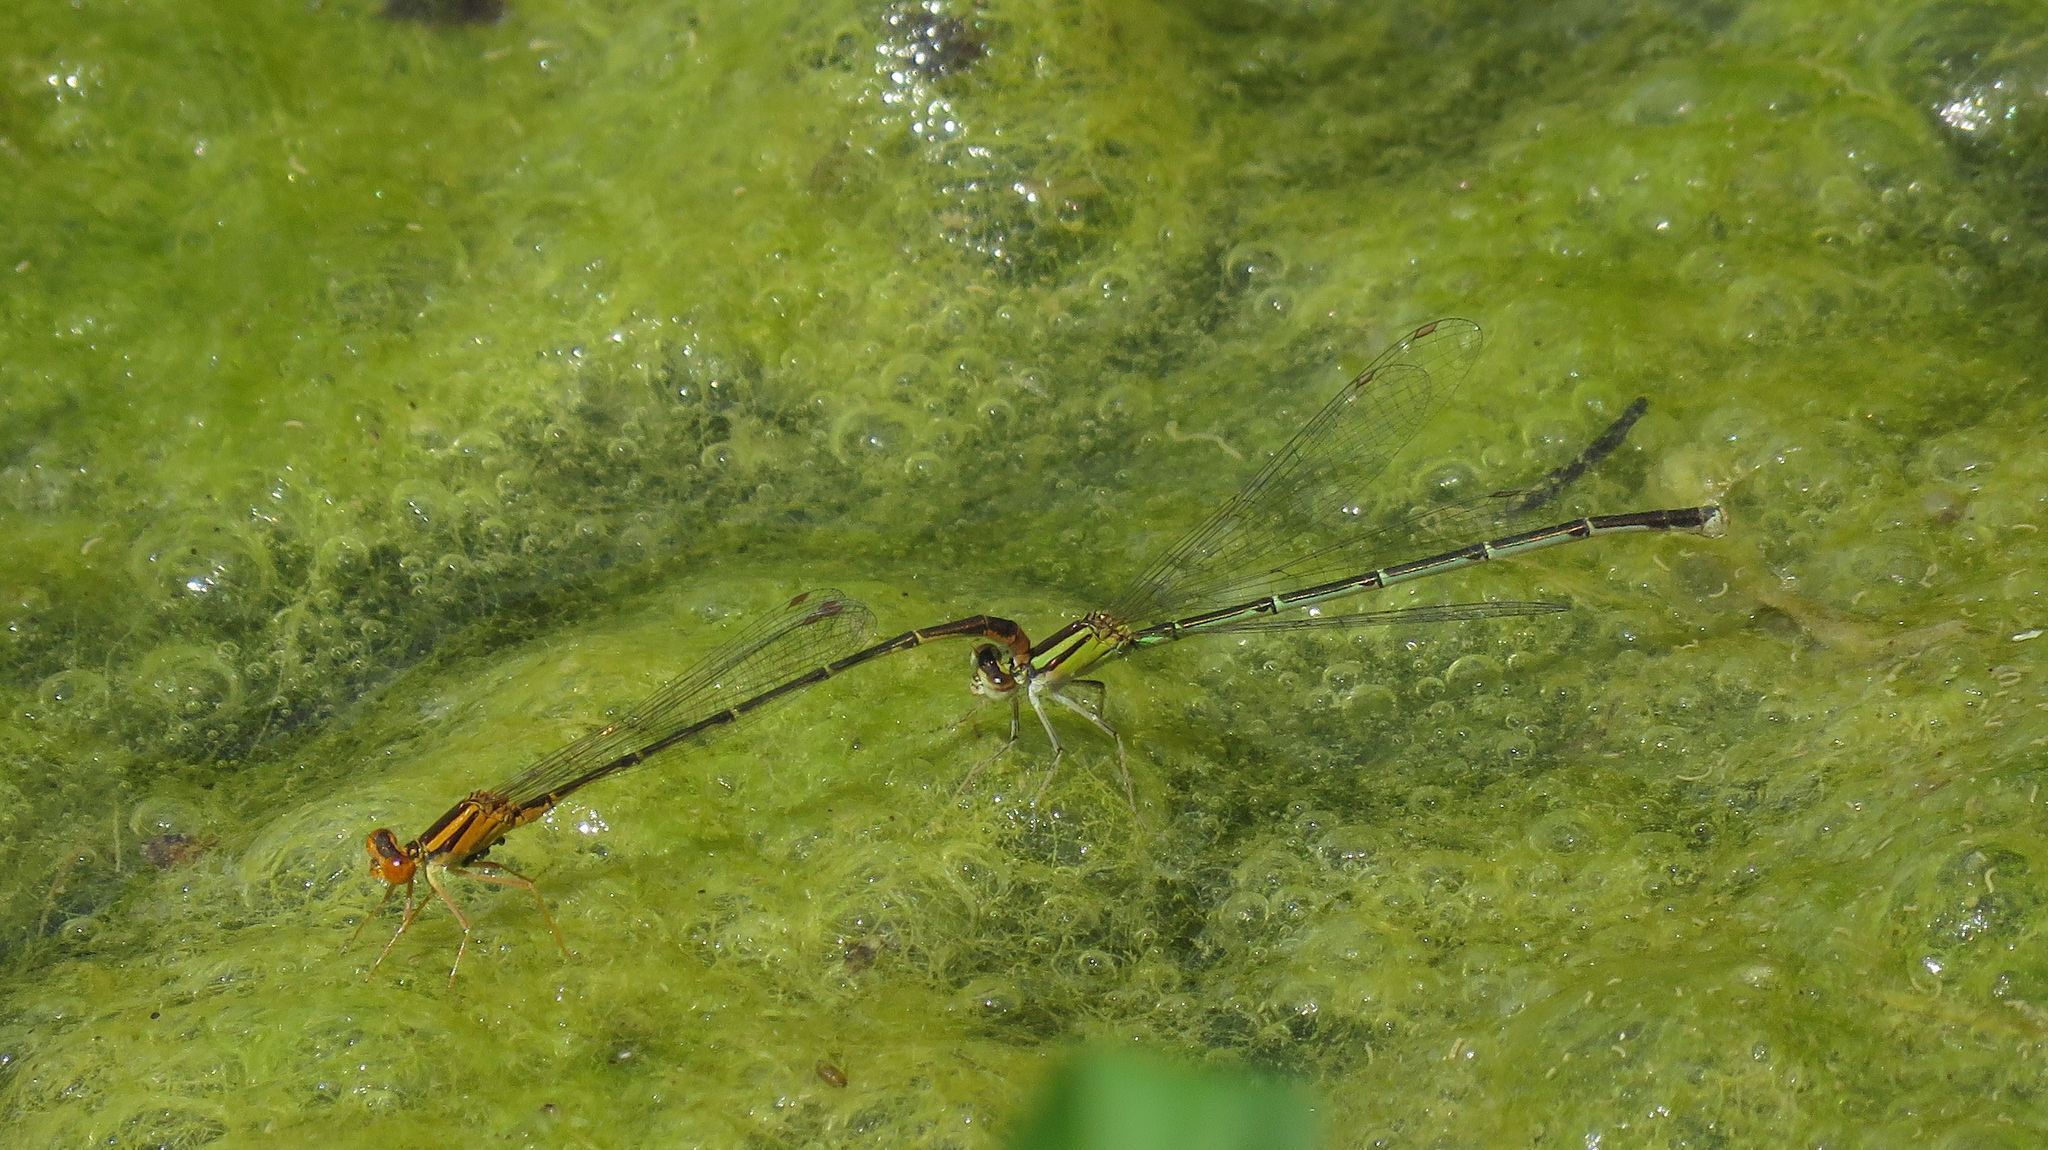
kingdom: Animalia
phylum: Arthropoda
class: Insecta
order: Odonata
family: Coenagrionidae
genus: Enallagma
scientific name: Enallagma signatum
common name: Orange bluet
